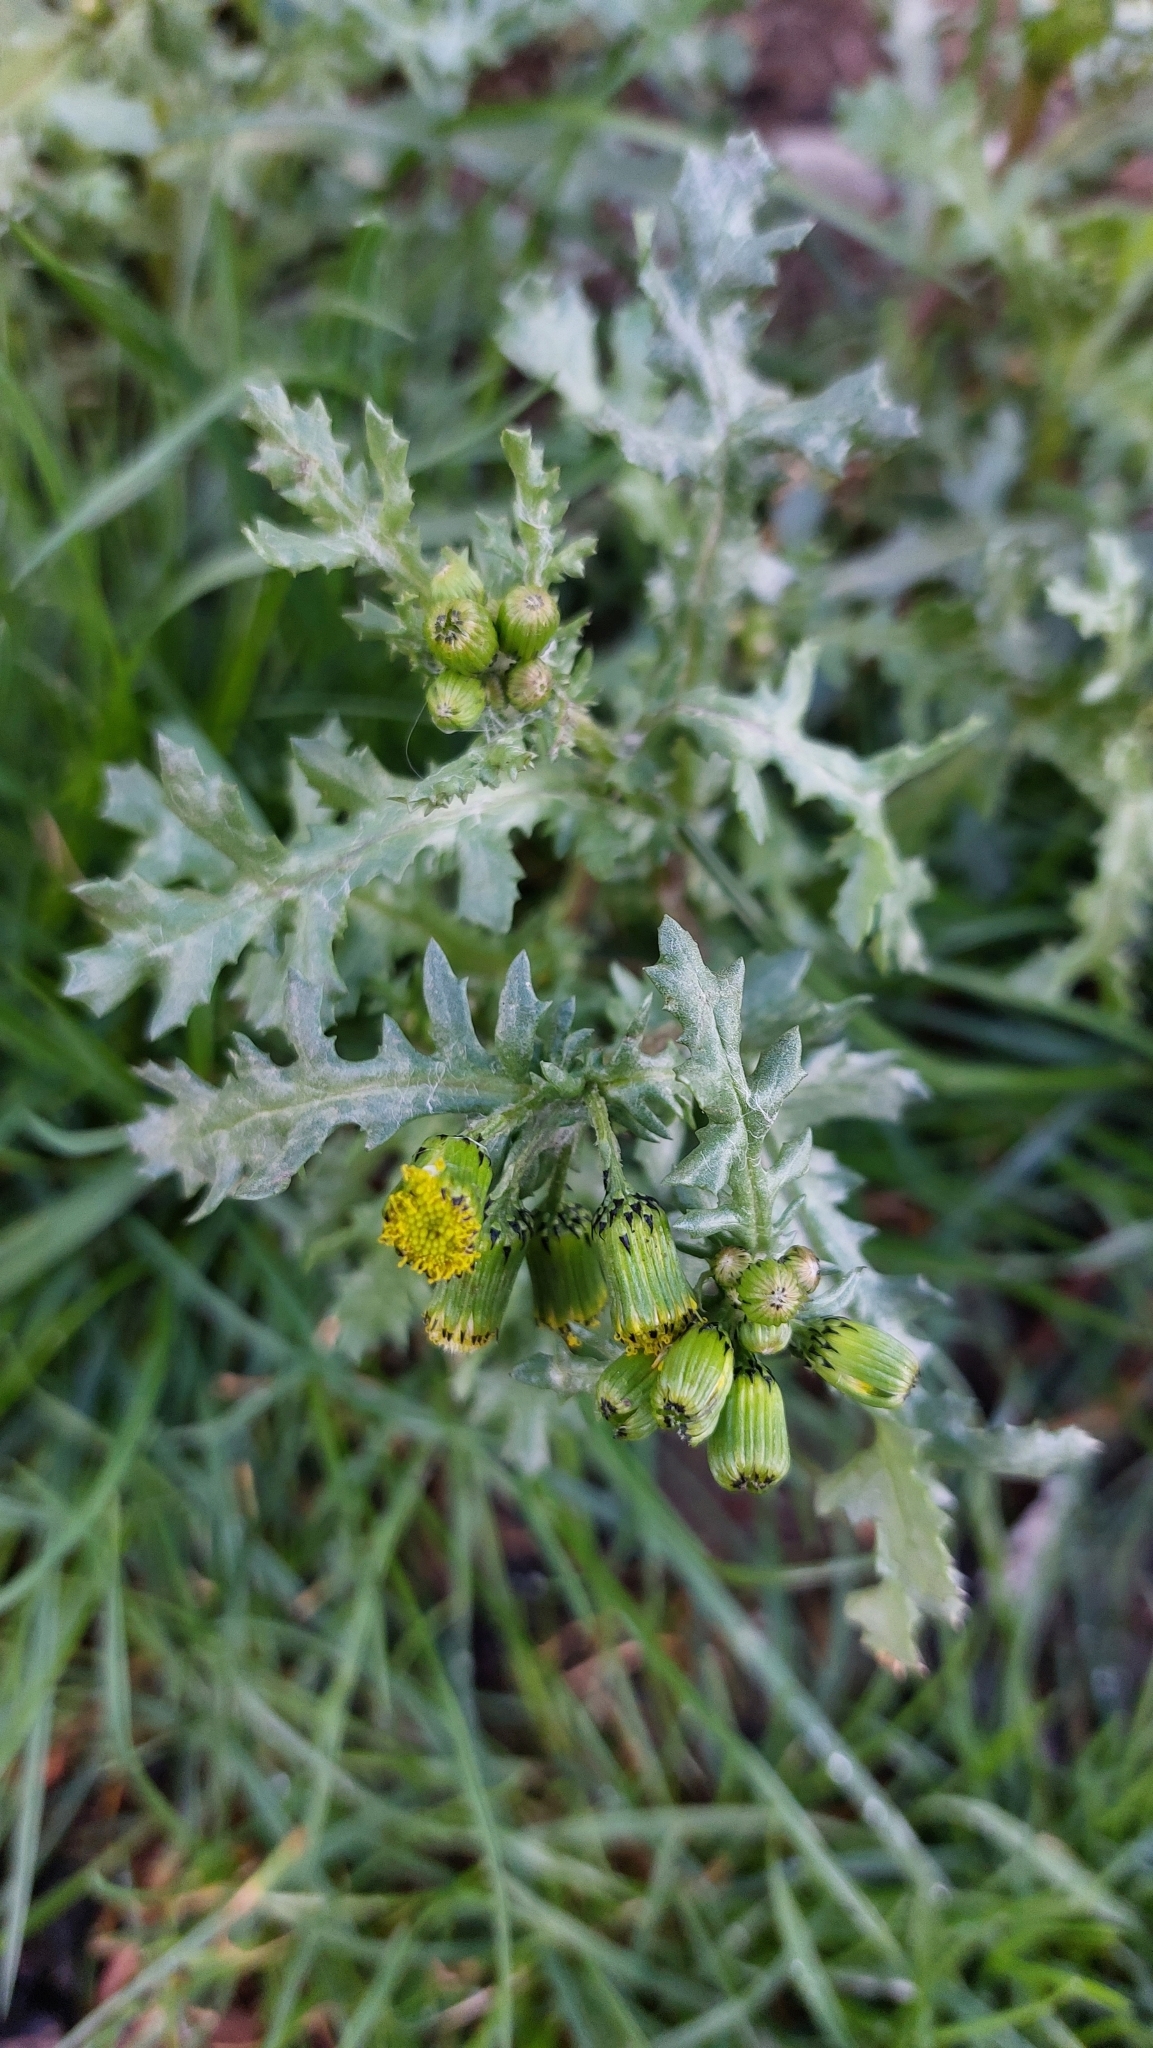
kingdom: Plantae
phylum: Tracheophyta
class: Magnoliopsida
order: Asterales
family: Asteraceae
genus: Senecio
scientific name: Senecio vulgaris
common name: Old-man-in-the-spring
